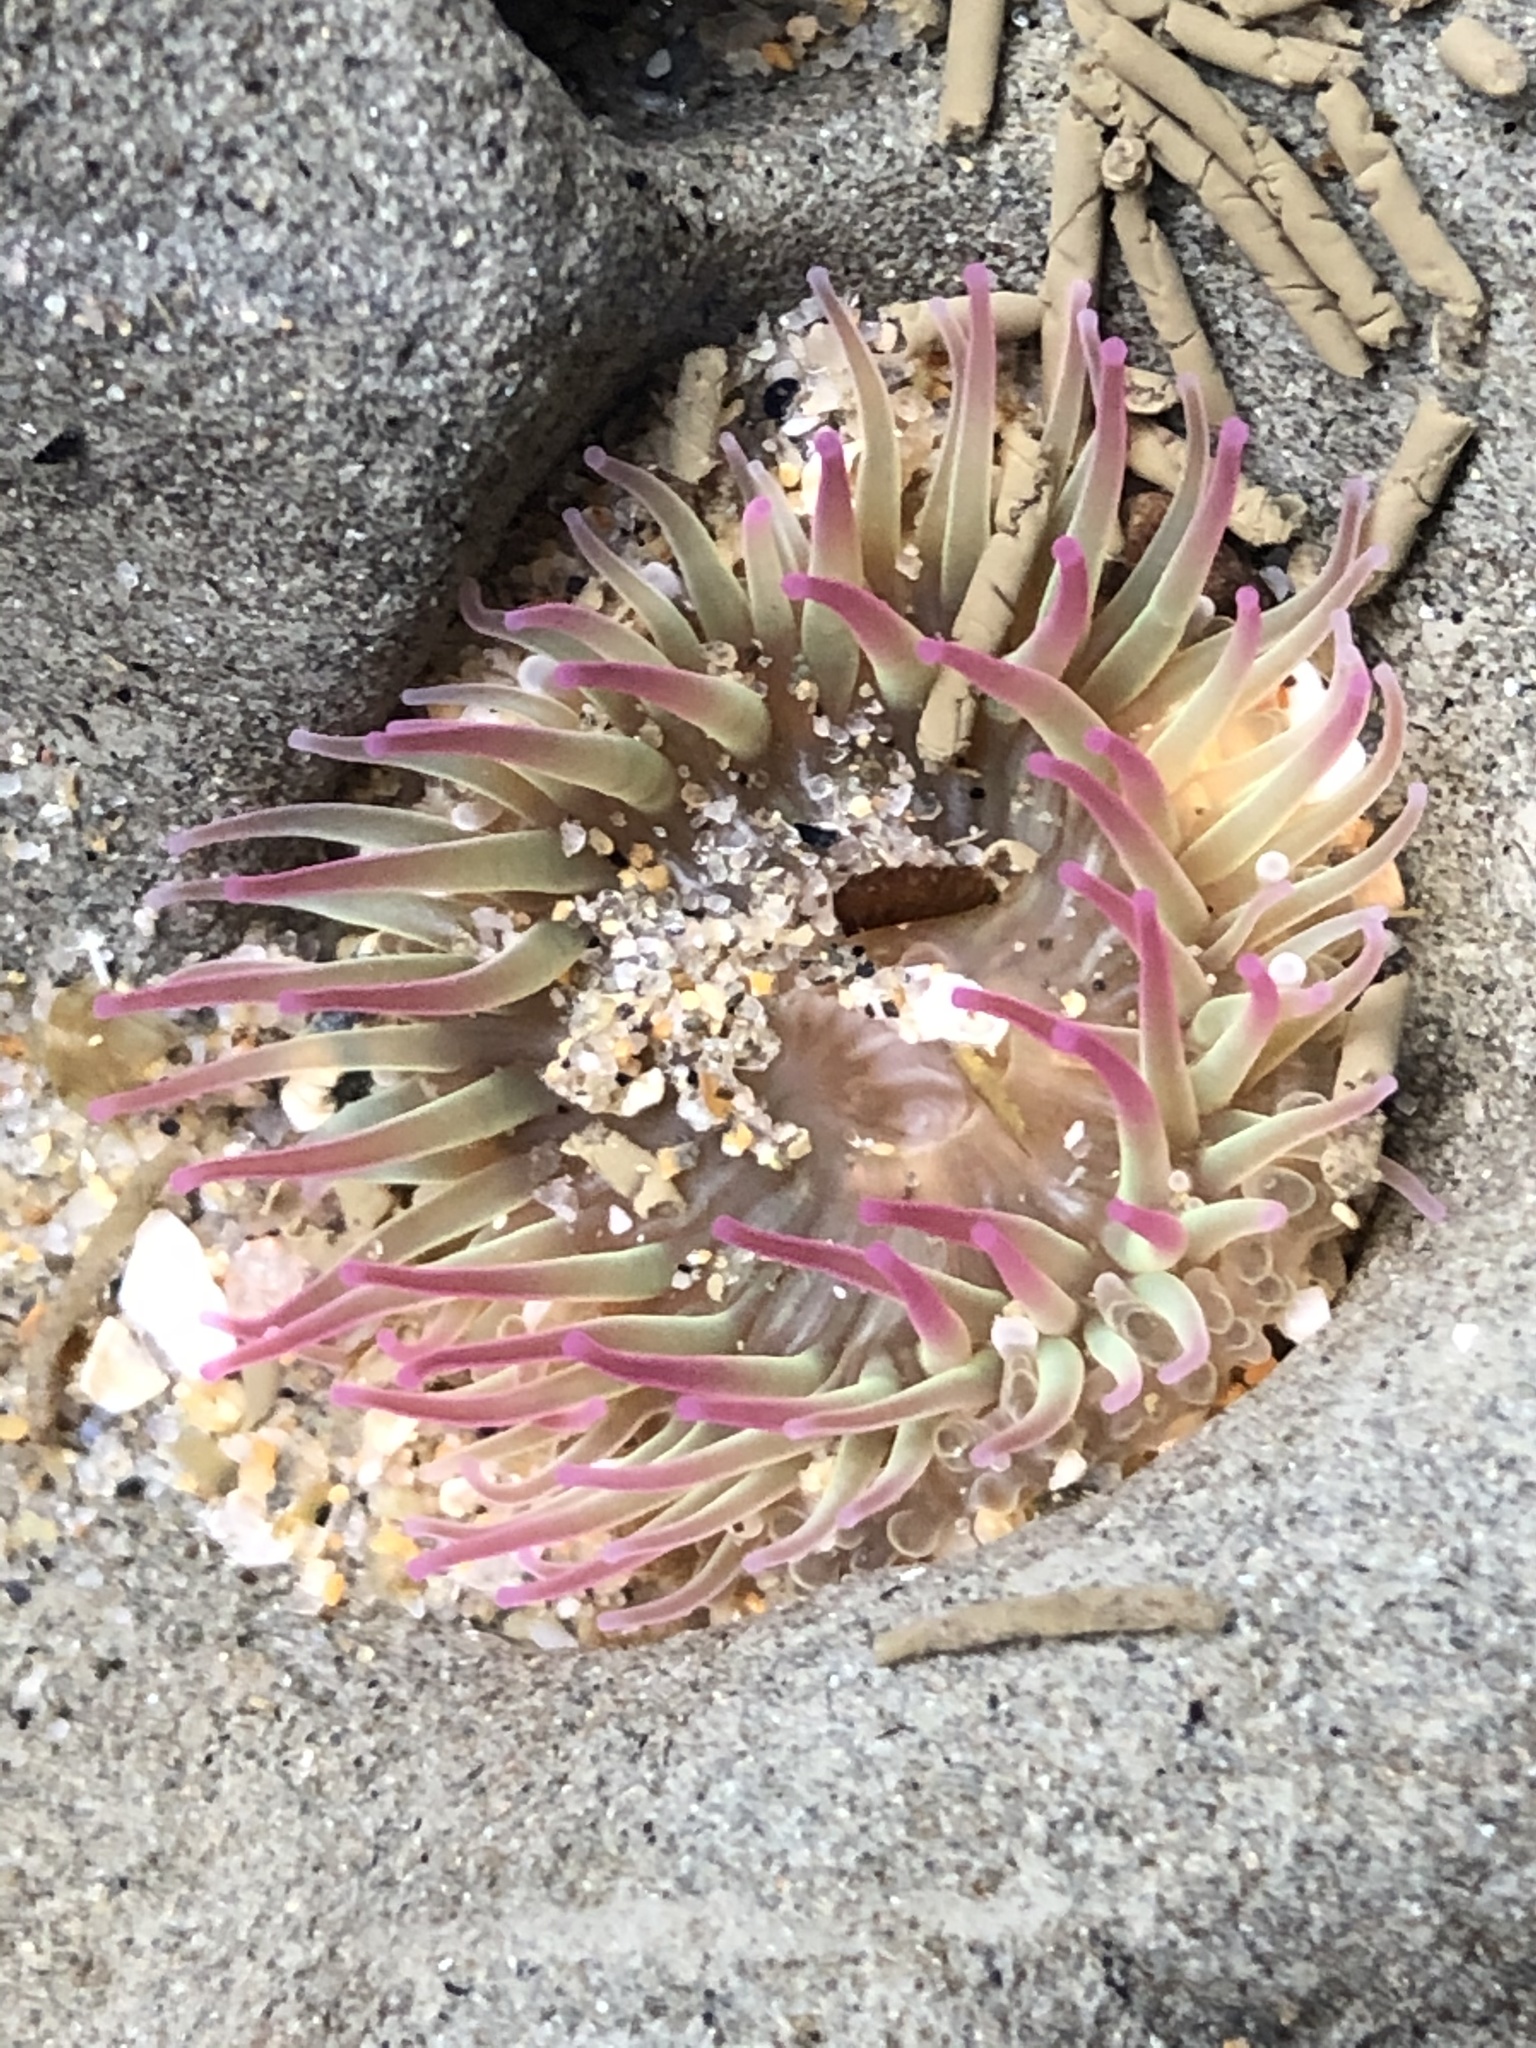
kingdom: Animalia
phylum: Cnidaria
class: Anthozoa
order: Actiniaria
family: Actiniidae
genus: Anthopleura
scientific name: Anthopleura elegantissima
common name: Clonal anemone
